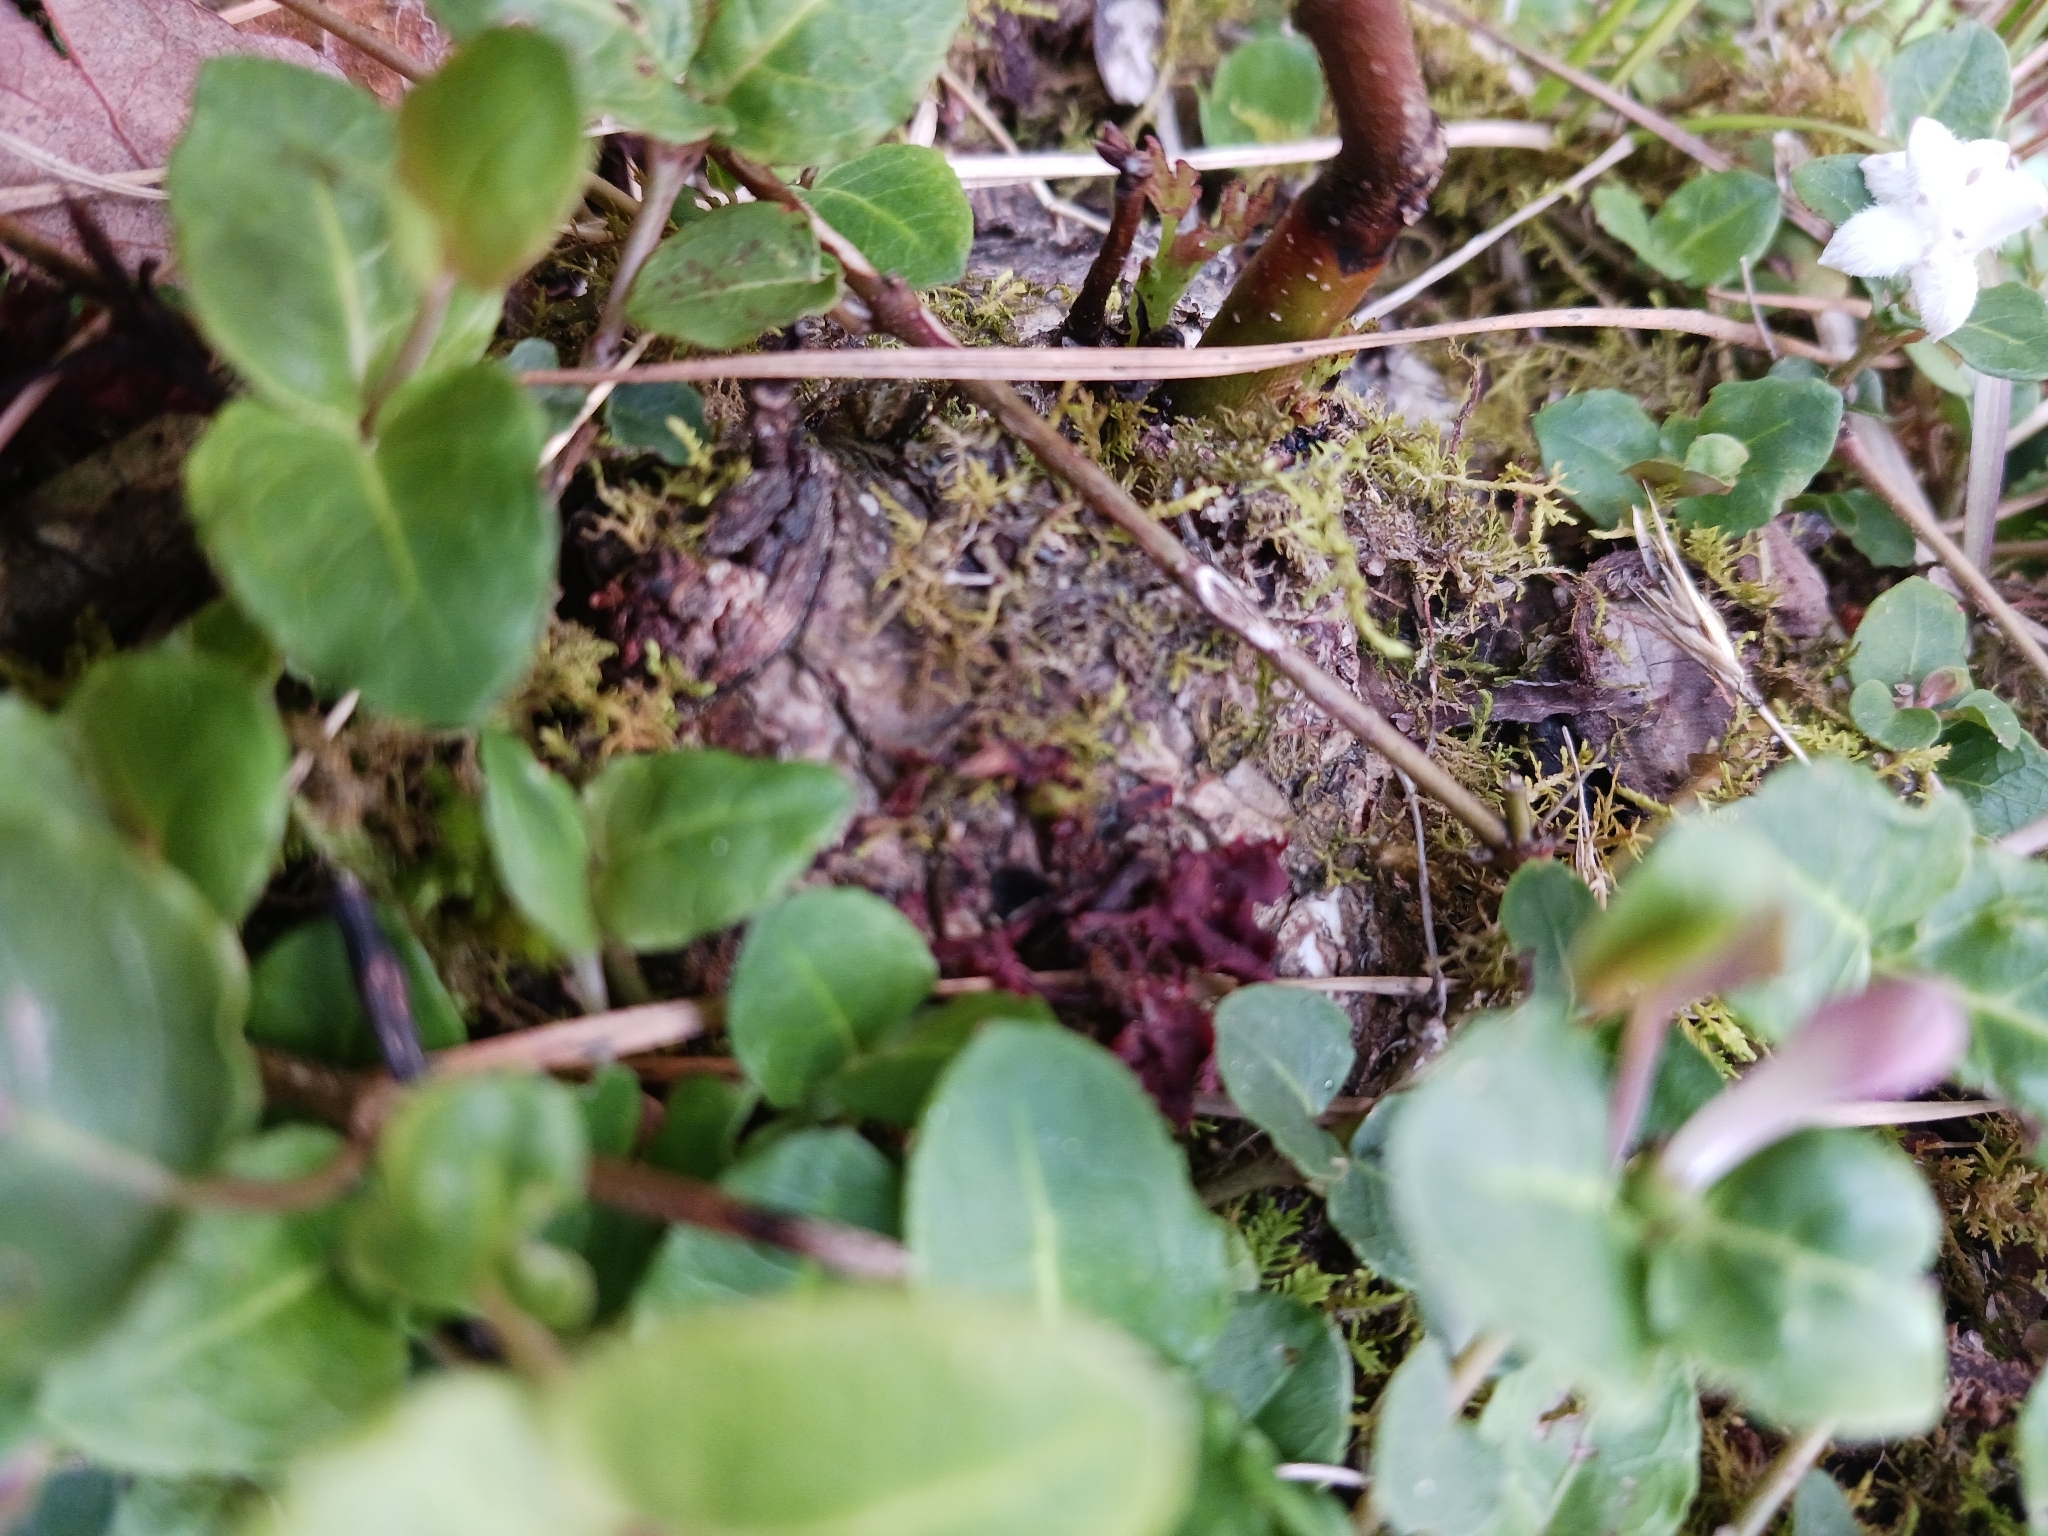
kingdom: Plantae
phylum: Tracheophyta
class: Magnoliopsida
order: Gentianales
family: Rubiaceae
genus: Mitchella
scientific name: Mitchella repens
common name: Partridge-berry
